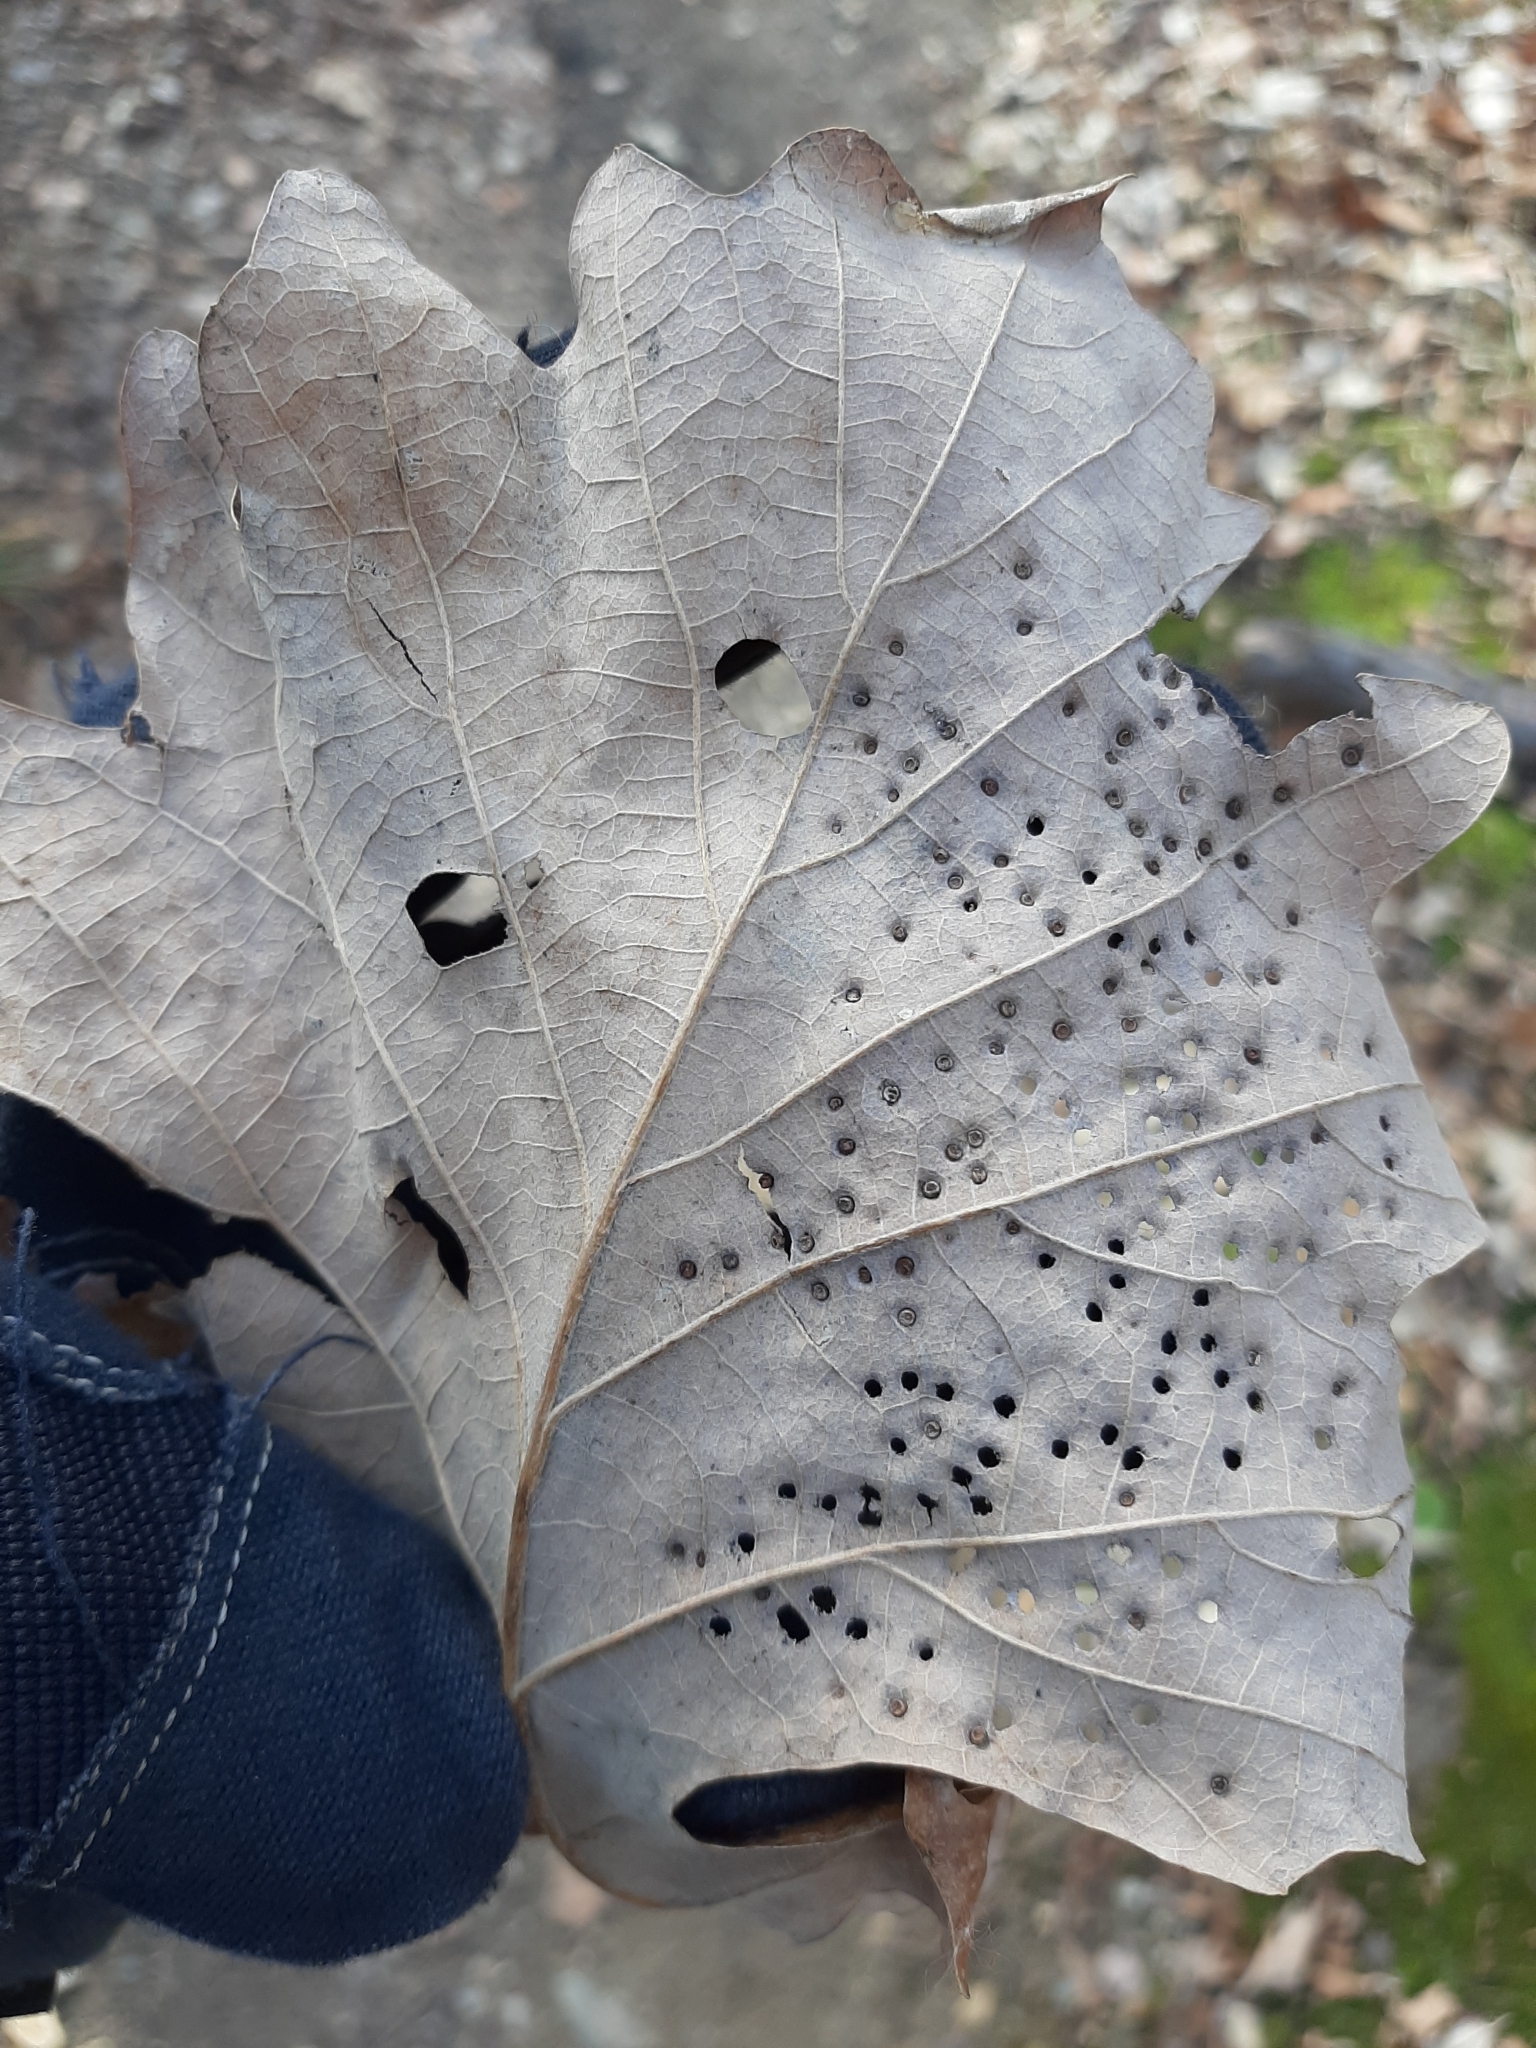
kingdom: Animalia
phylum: Arthropoda
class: Insecta
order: Hymenoptera
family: Cynipidae
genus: Neuroterus
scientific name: Neuroterus saltarius
